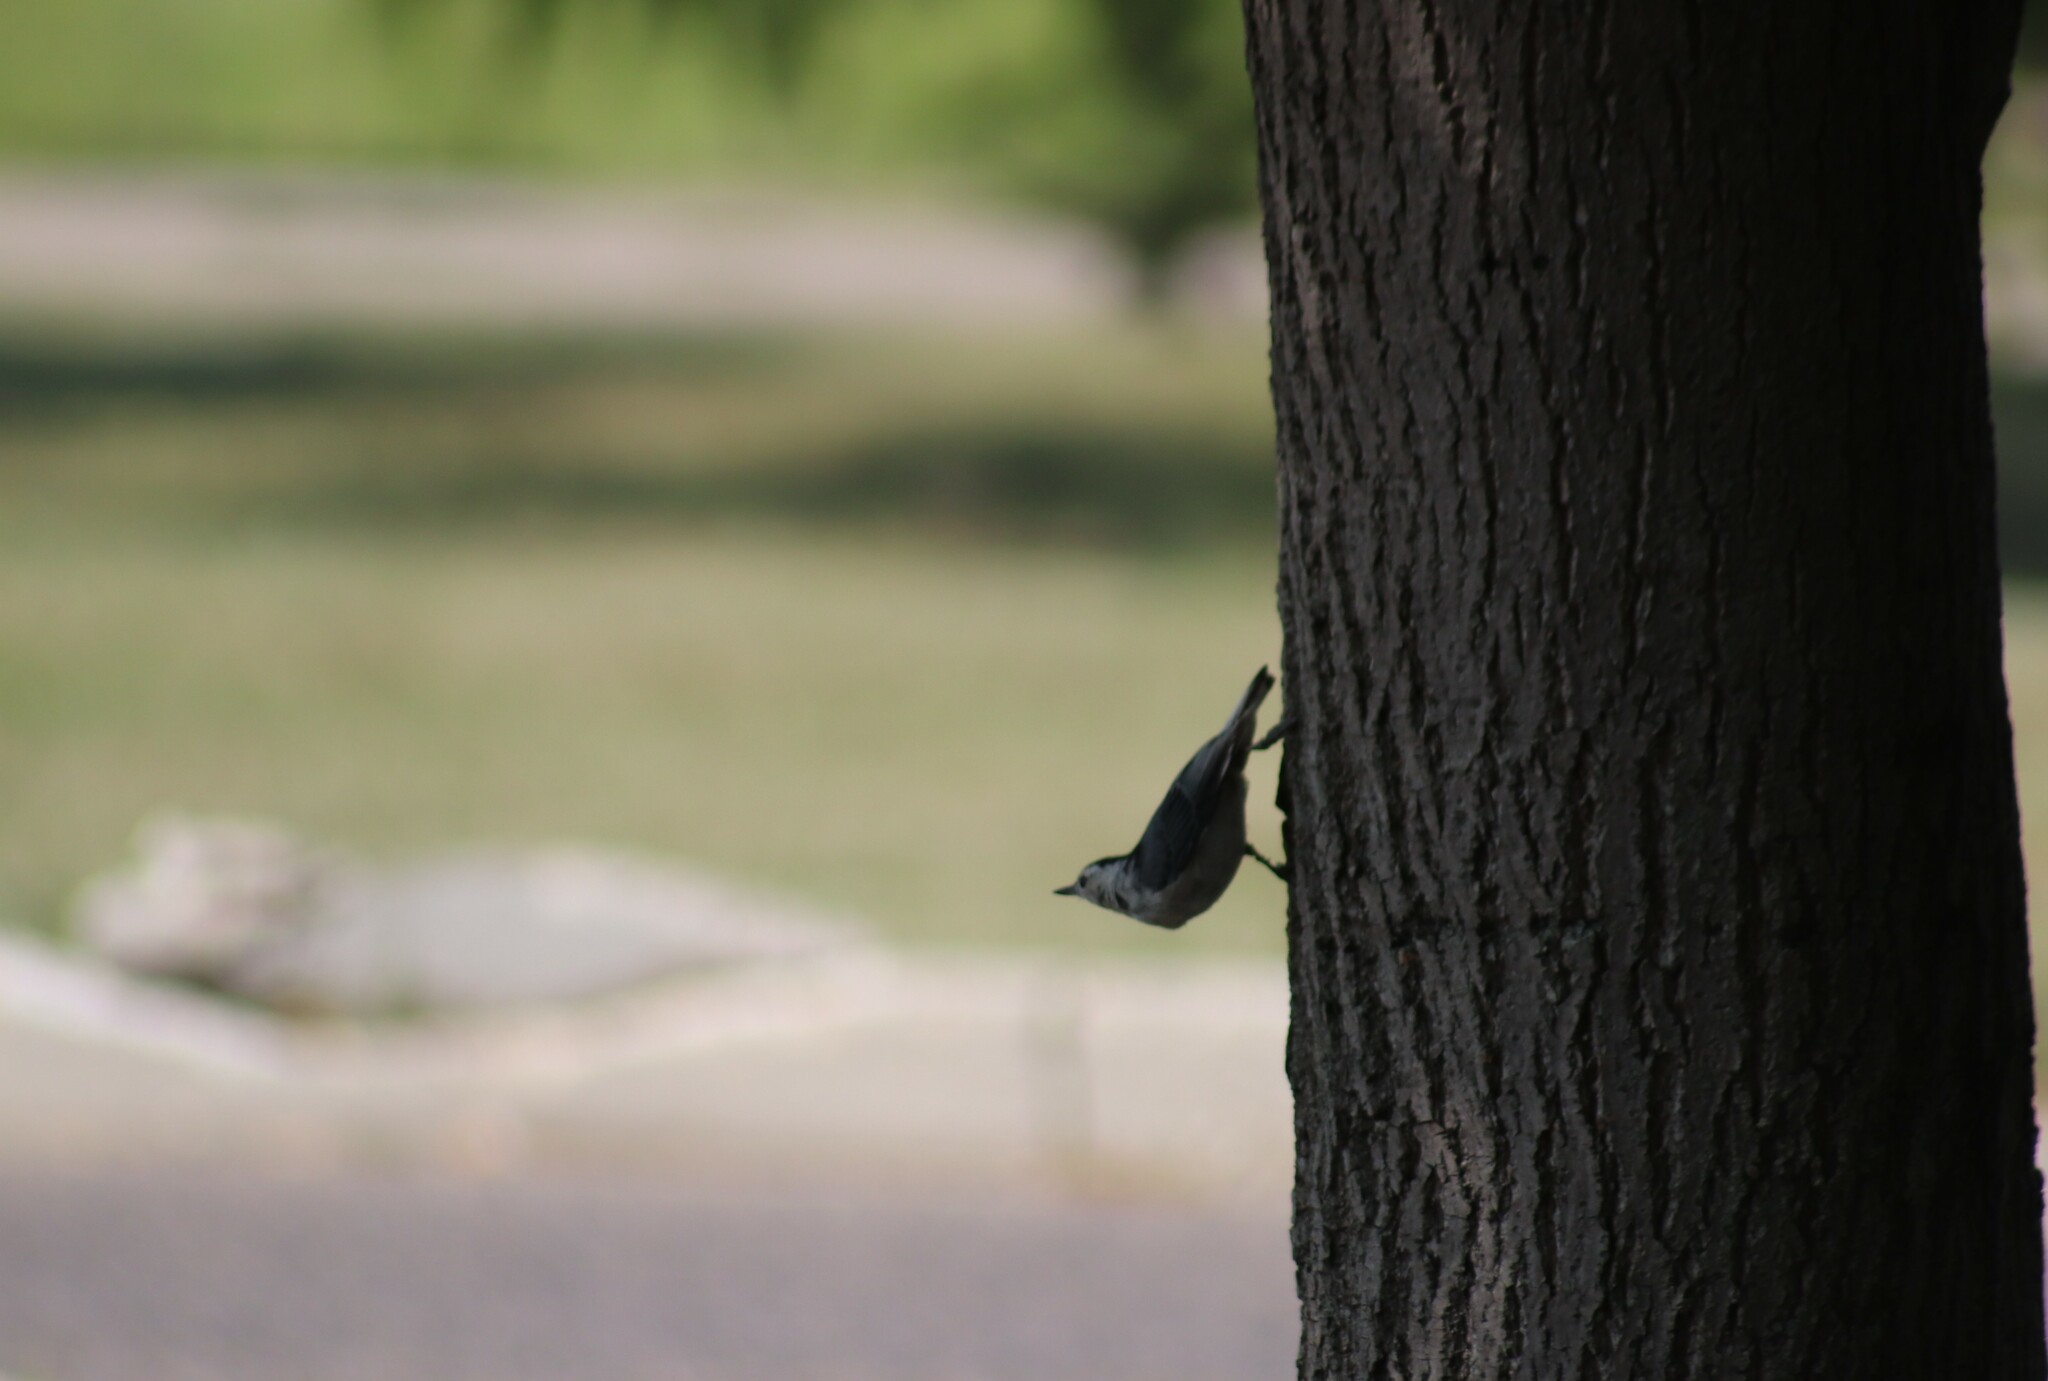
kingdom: Animalia
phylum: Chordata
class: Aves
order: Passeriformes
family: Sittidae
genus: Sitta
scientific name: Sitta carolinensis
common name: White-breasted nuthatch
